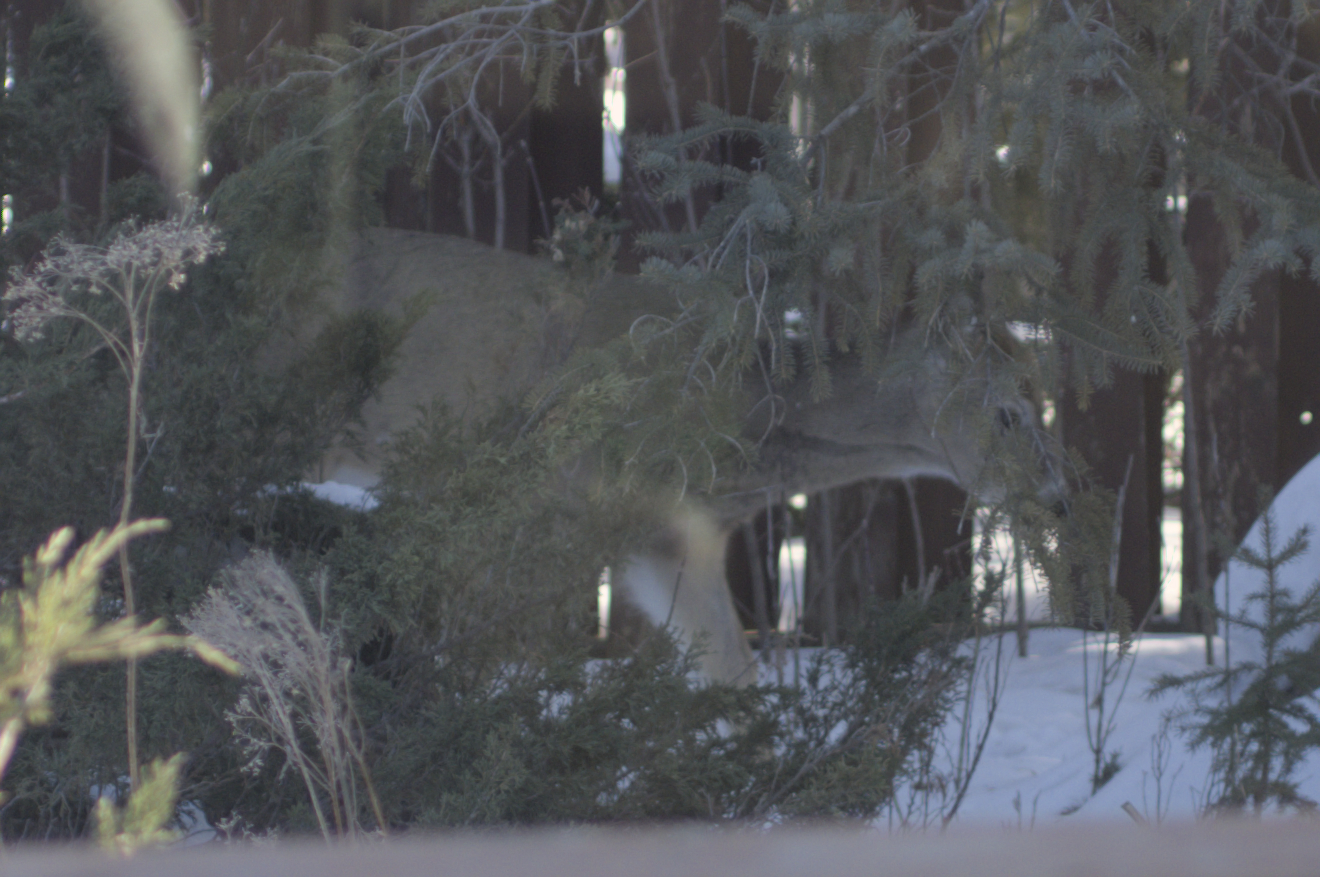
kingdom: Animalia
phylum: Chordata
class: Mammalia
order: Artiodactyla
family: Cervidae
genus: Odocoileus
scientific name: Odocoileus virginianus
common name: White-tailed deer
